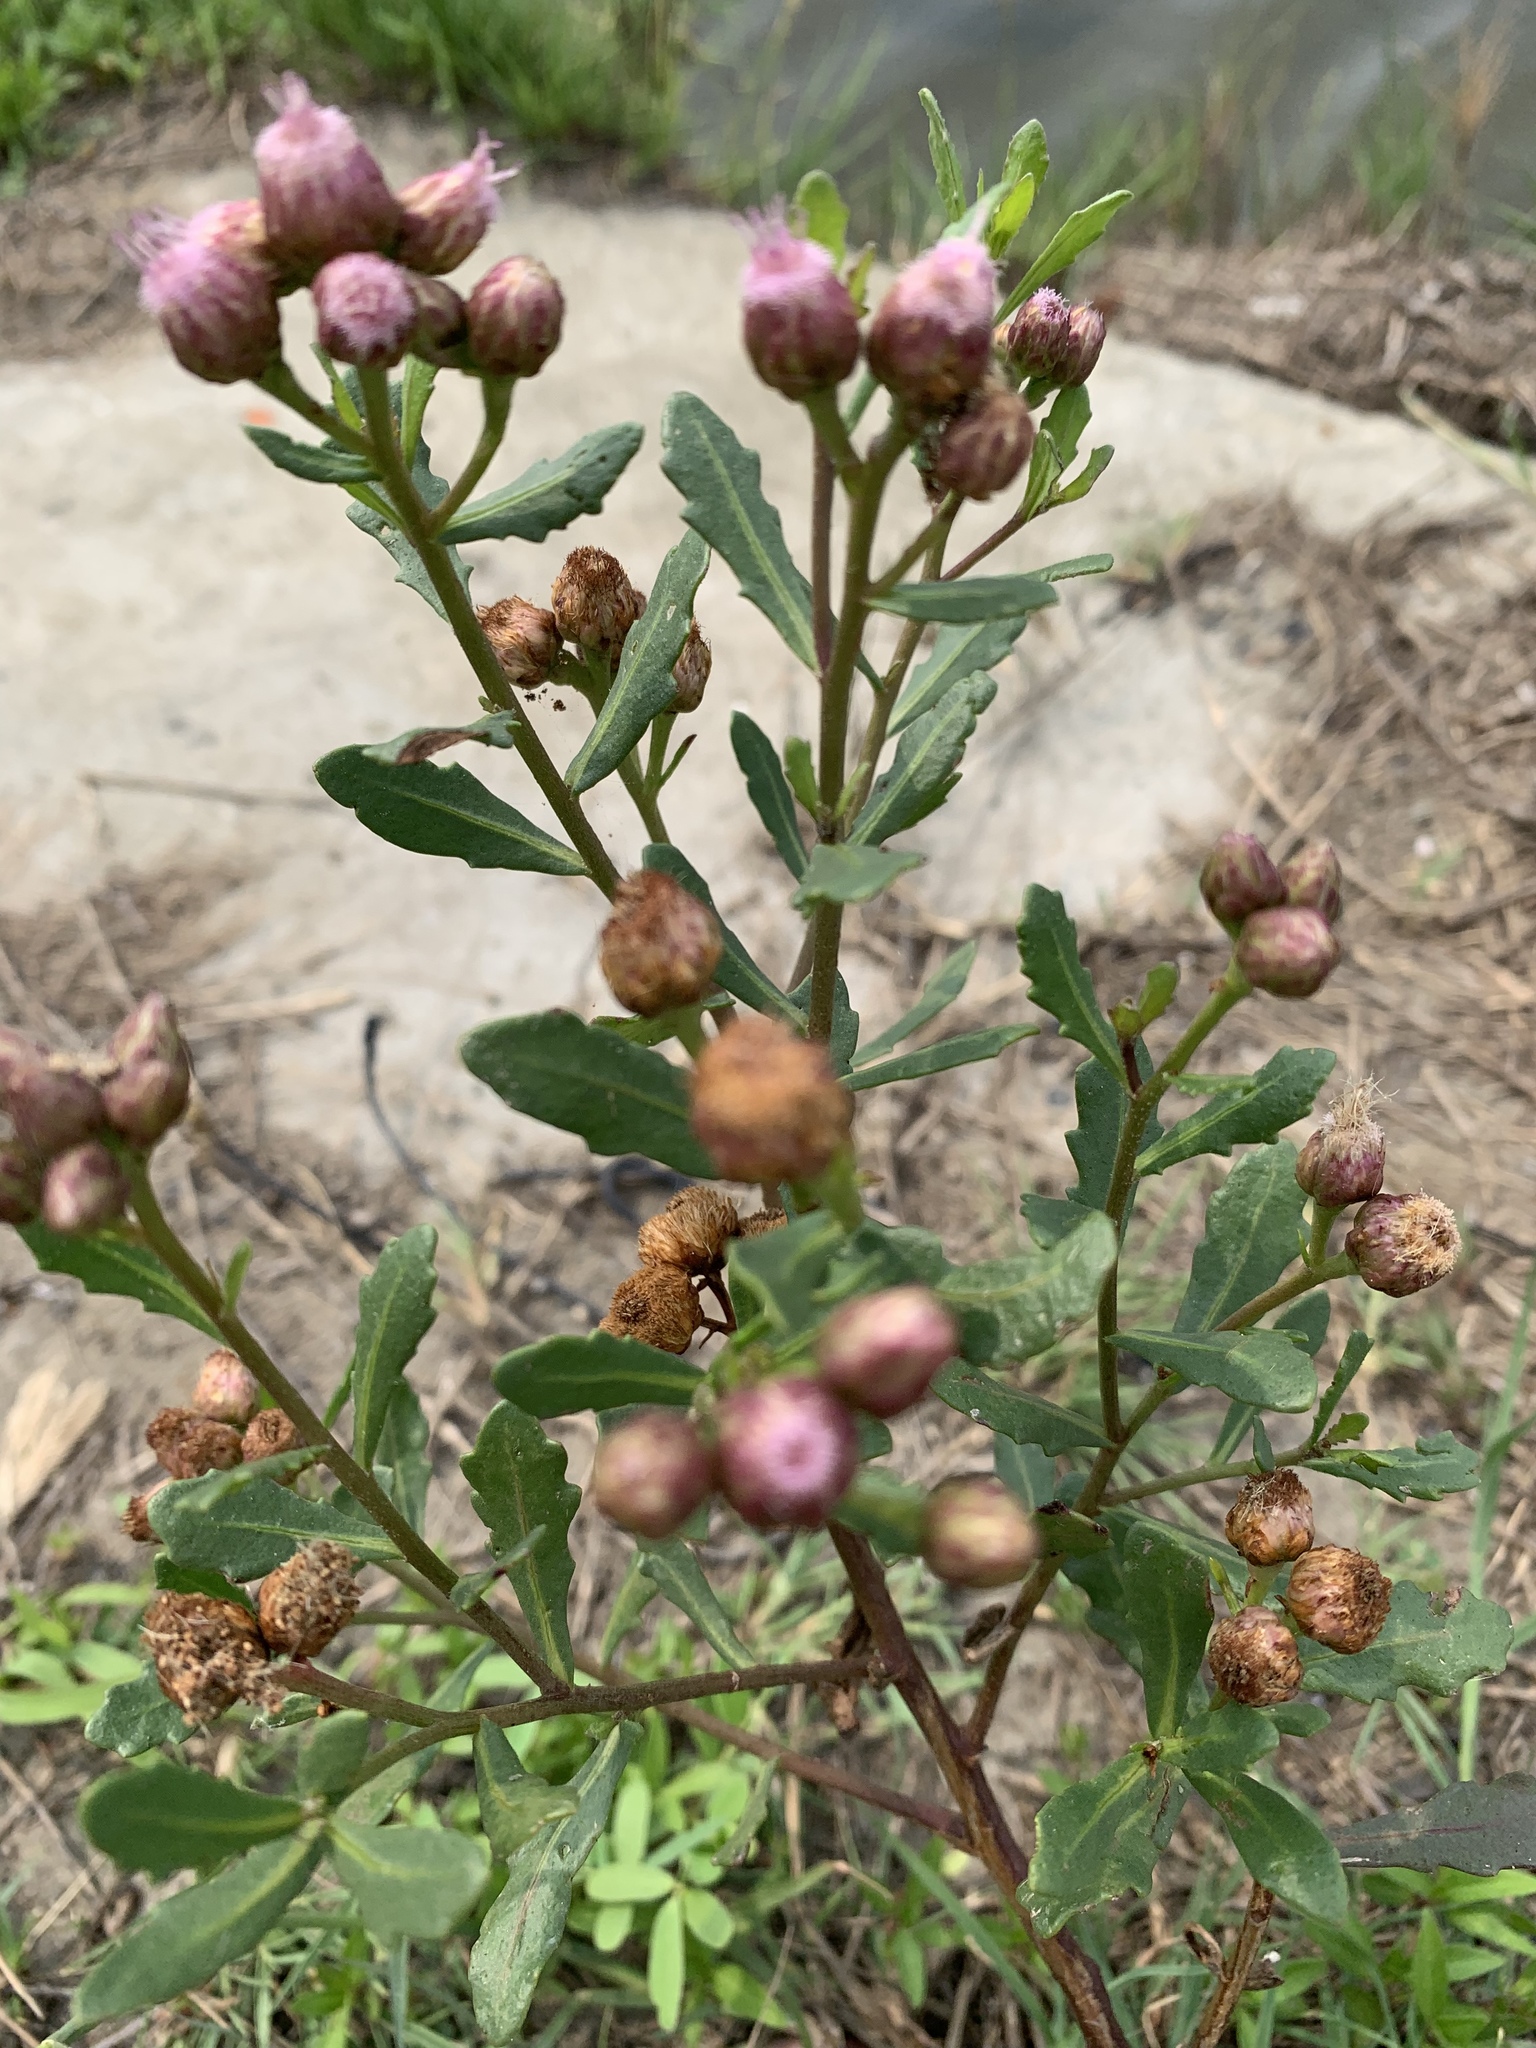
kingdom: Plantae
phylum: Tracheophyta
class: Magnoliopsida
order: Asterales
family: Asteraceae
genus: Pluchea
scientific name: Pluchea pteropoda
